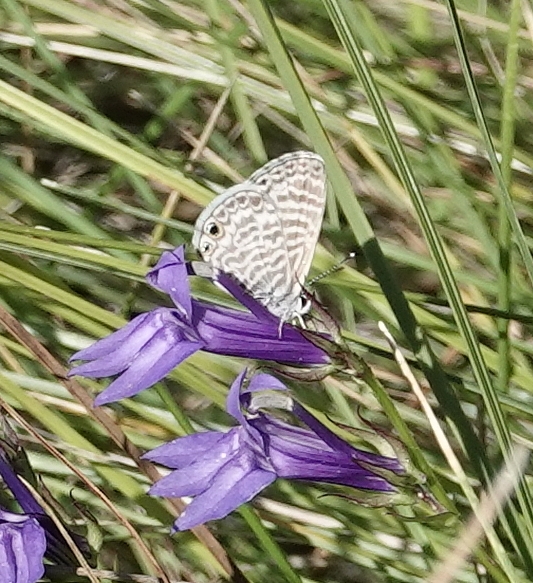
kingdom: Animalia
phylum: Arthropoda
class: Insecta
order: Lepidoptera
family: Lycaenidae
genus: Leptotes
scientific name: Leptotes marina
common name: Marine blue
